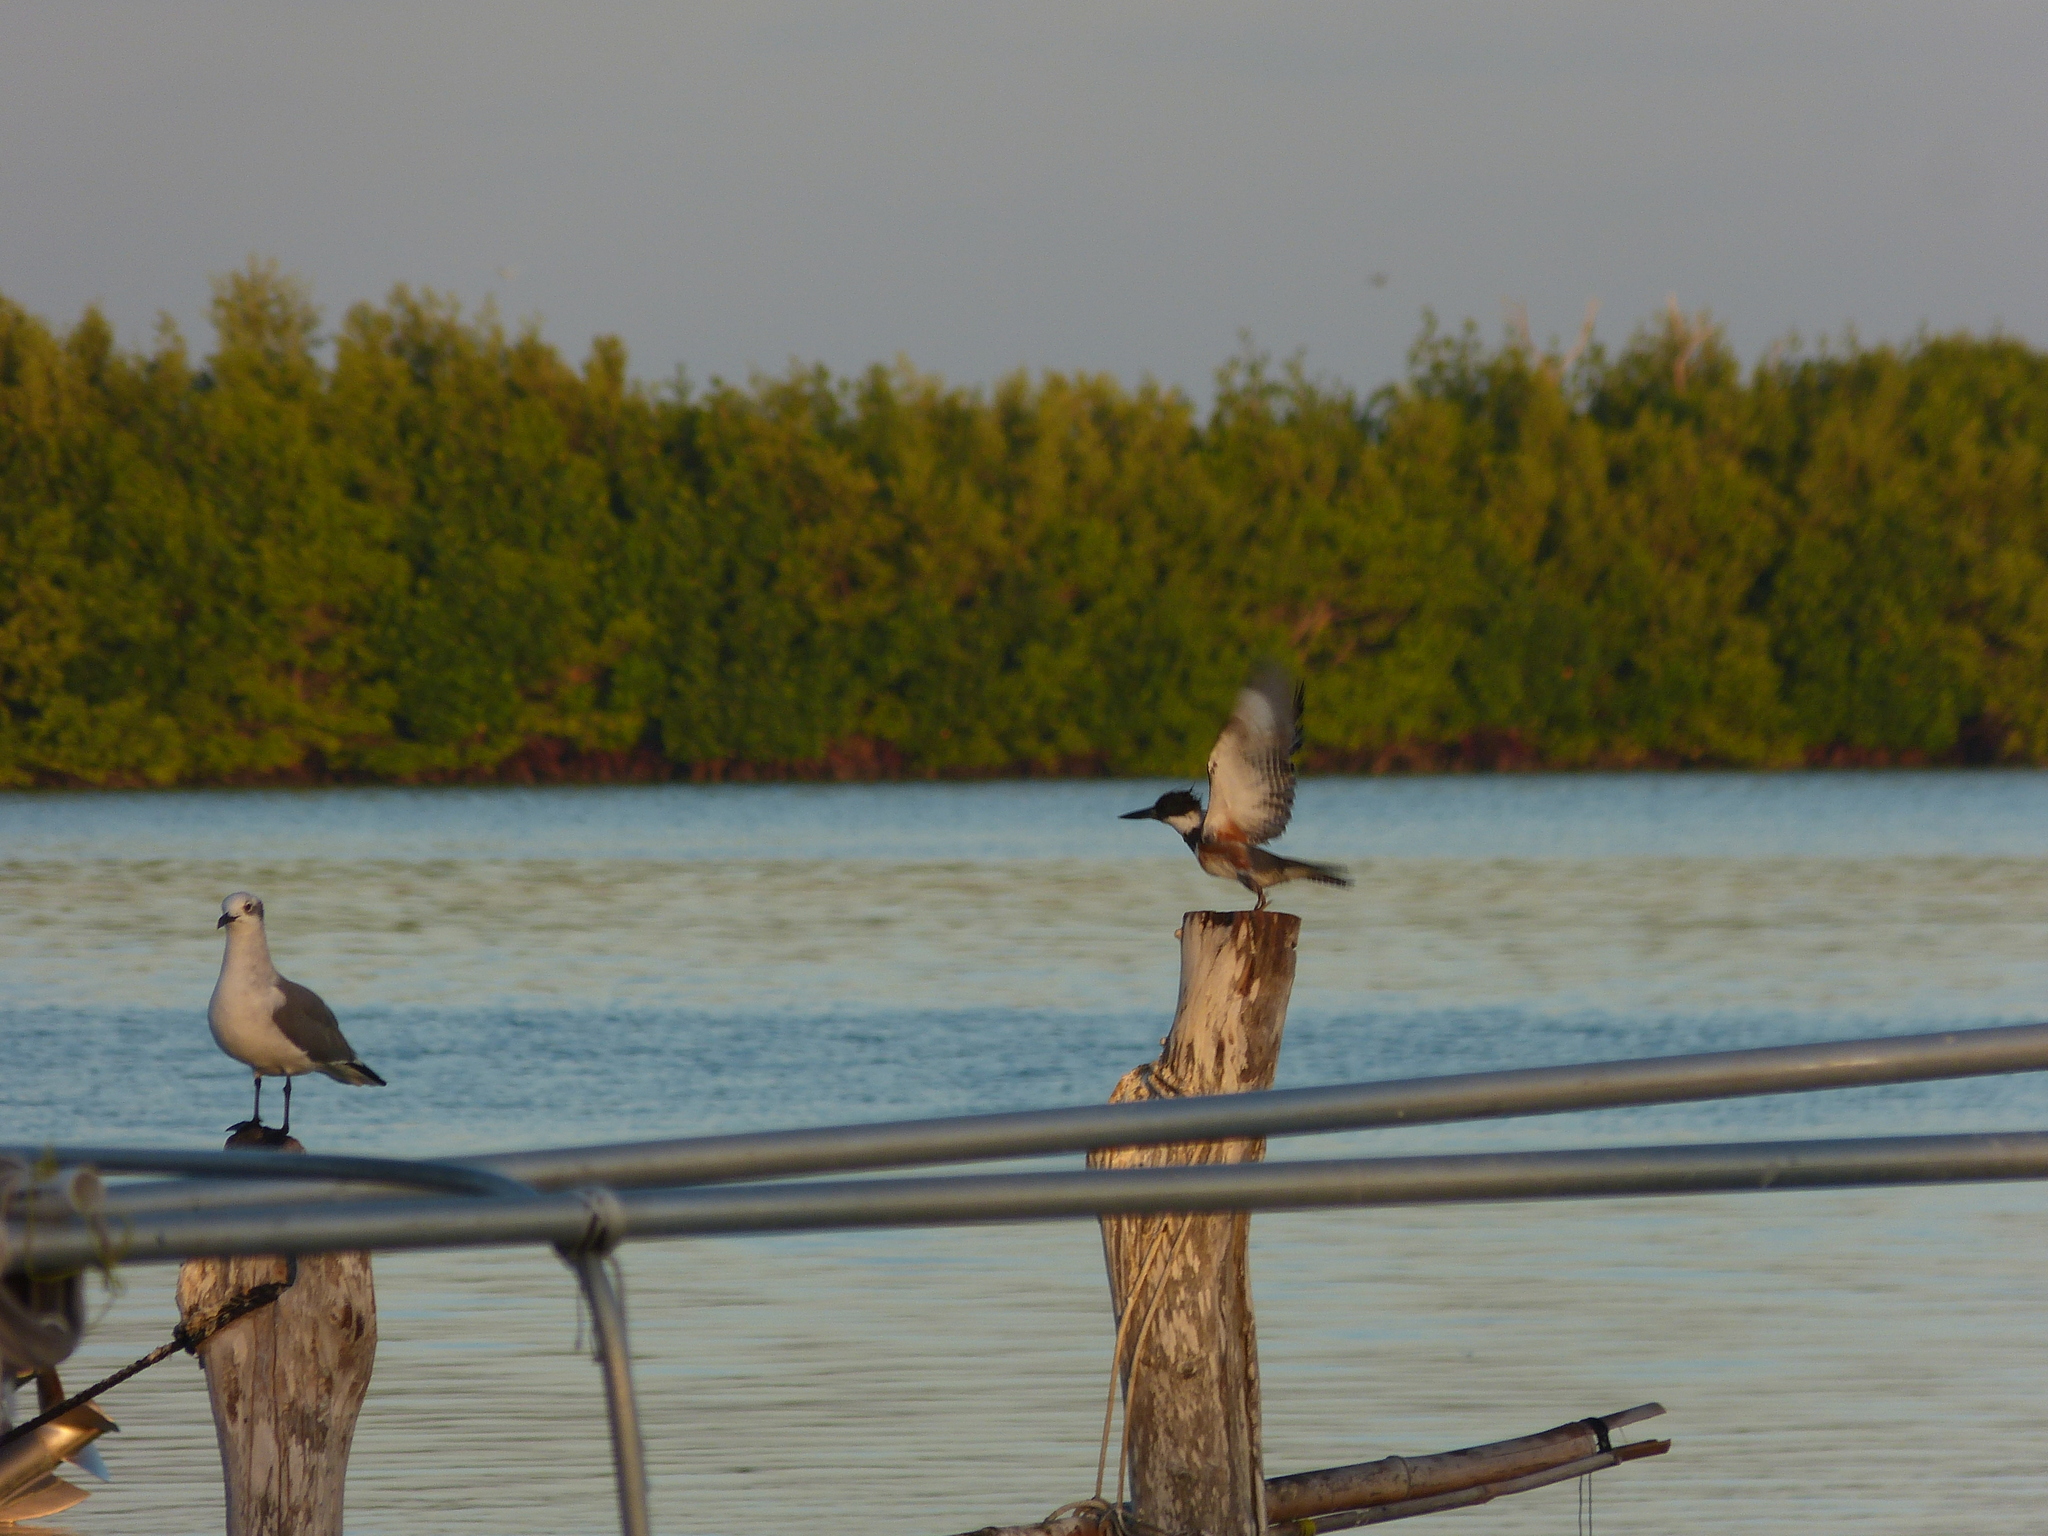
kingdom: Animalia
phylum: Chordata
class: Aves
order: Charadriiformes
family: Laridae
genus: Leucophaeus
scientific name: Leucophaeus atricilla
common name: Laughing gull
